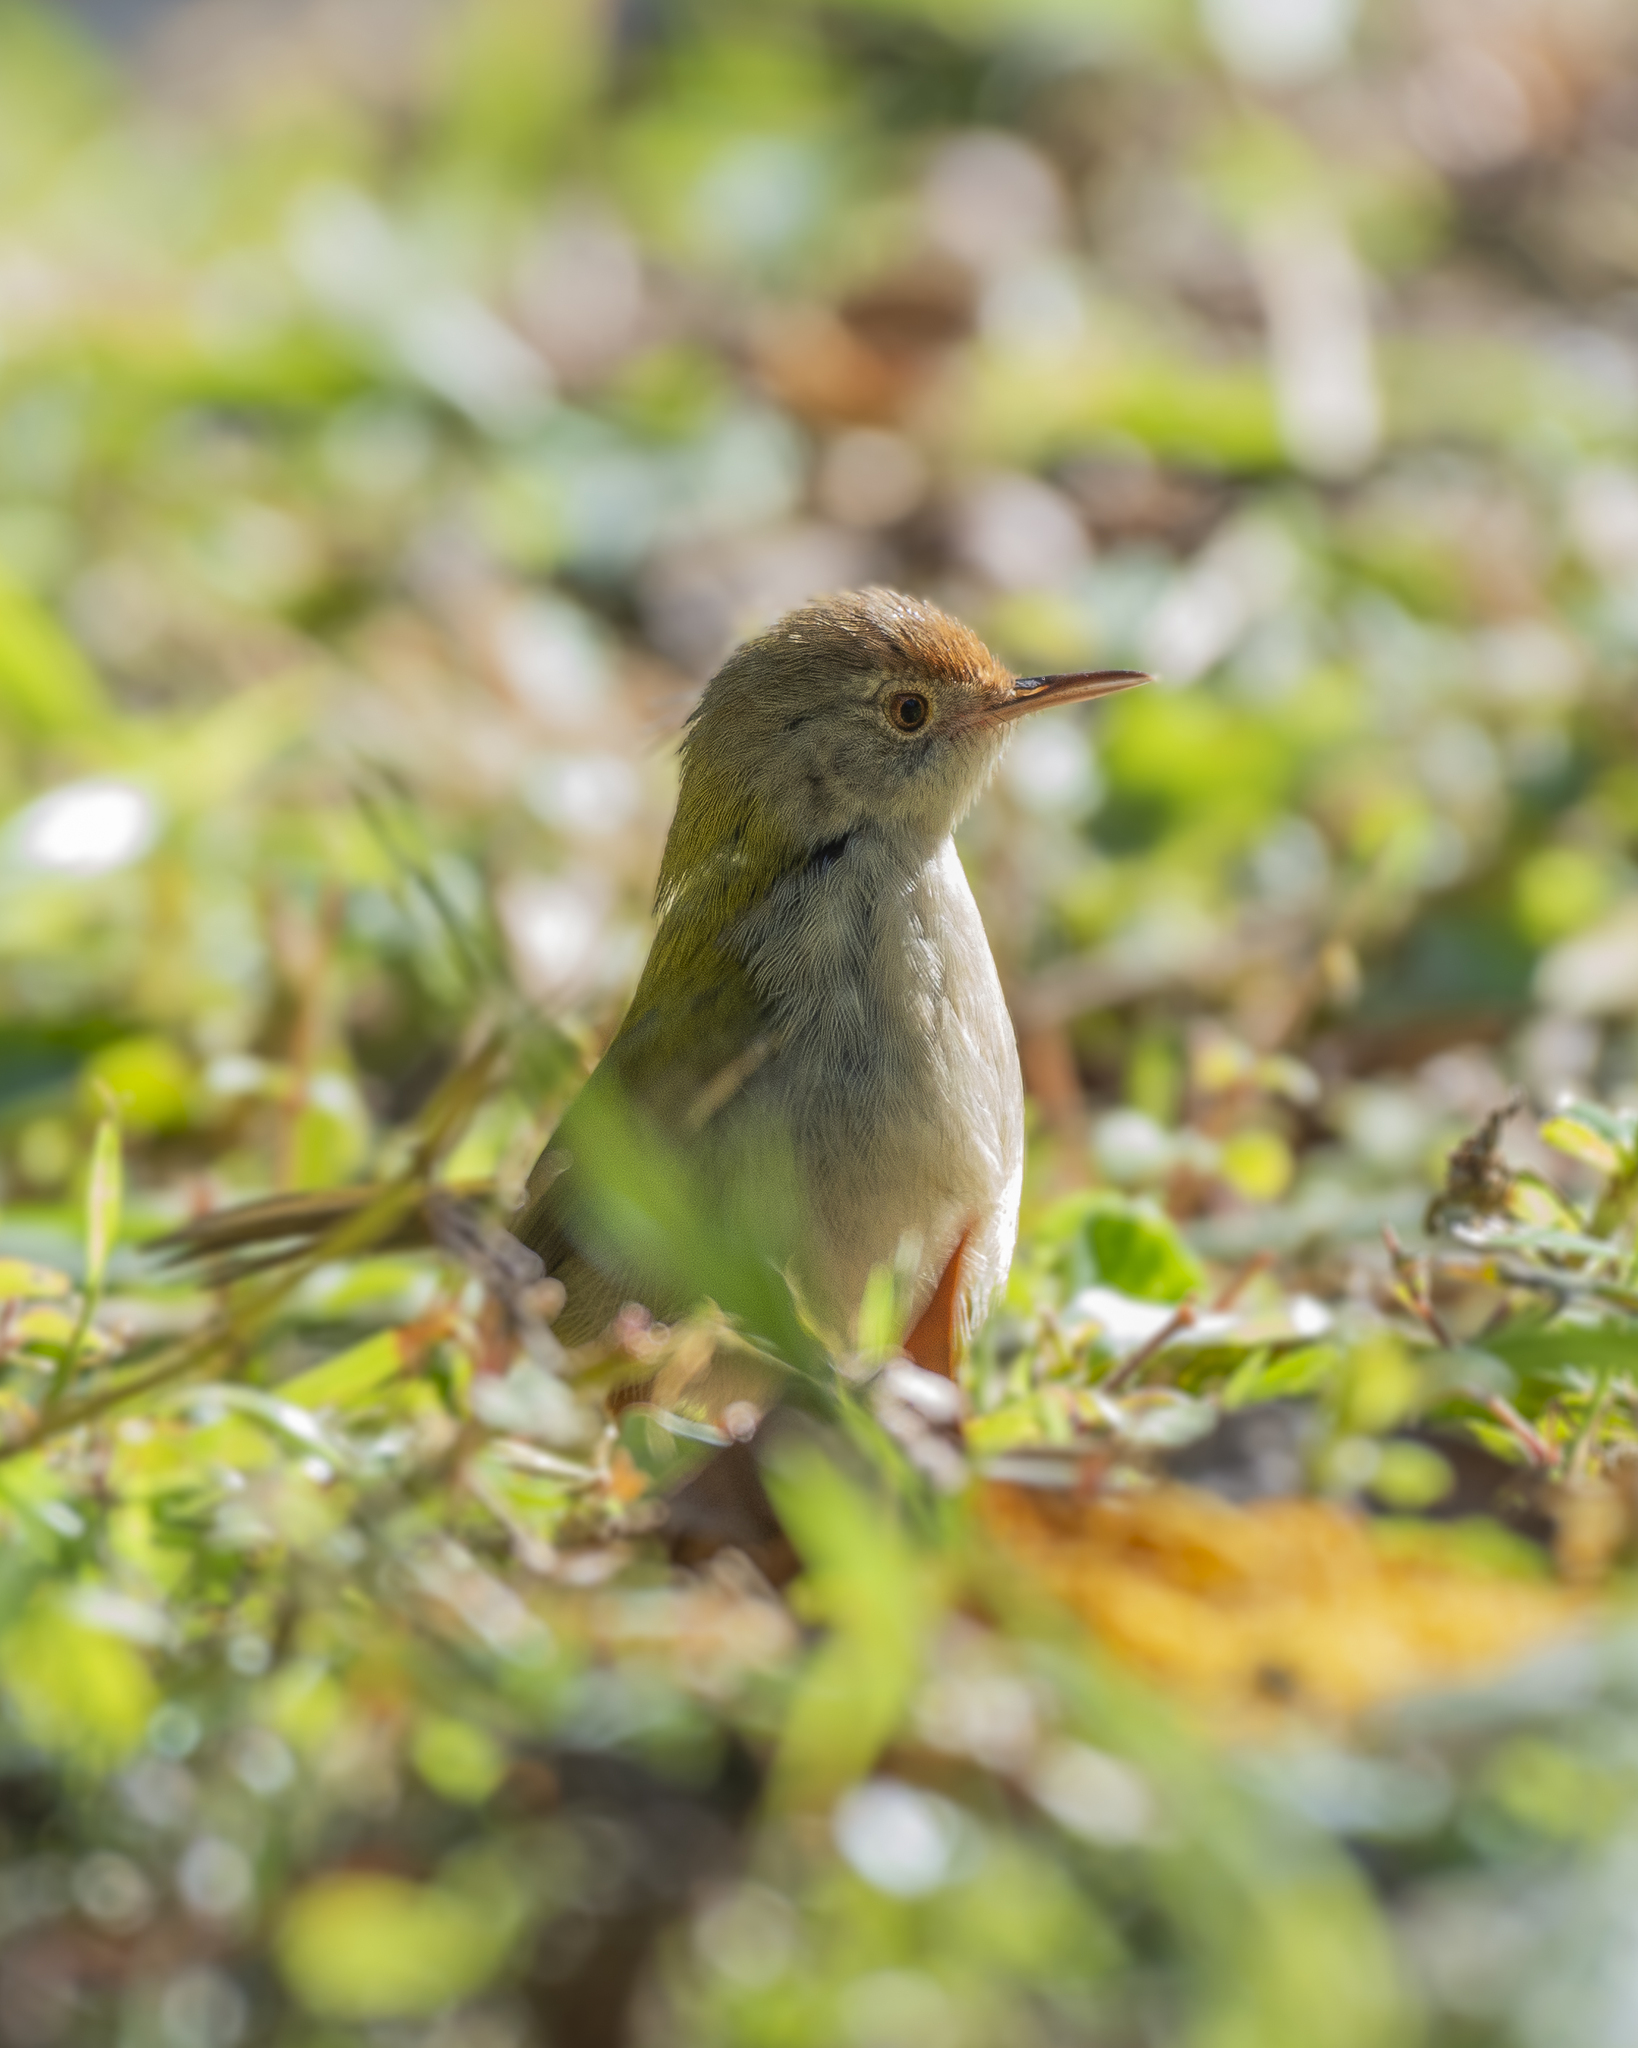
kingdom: Animalia
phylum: Chordata
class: Aves
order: Passeriformes
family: Cisticolidae
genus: Orthotomus
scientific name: Orthotomus sutorius
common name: Common tailorbird
